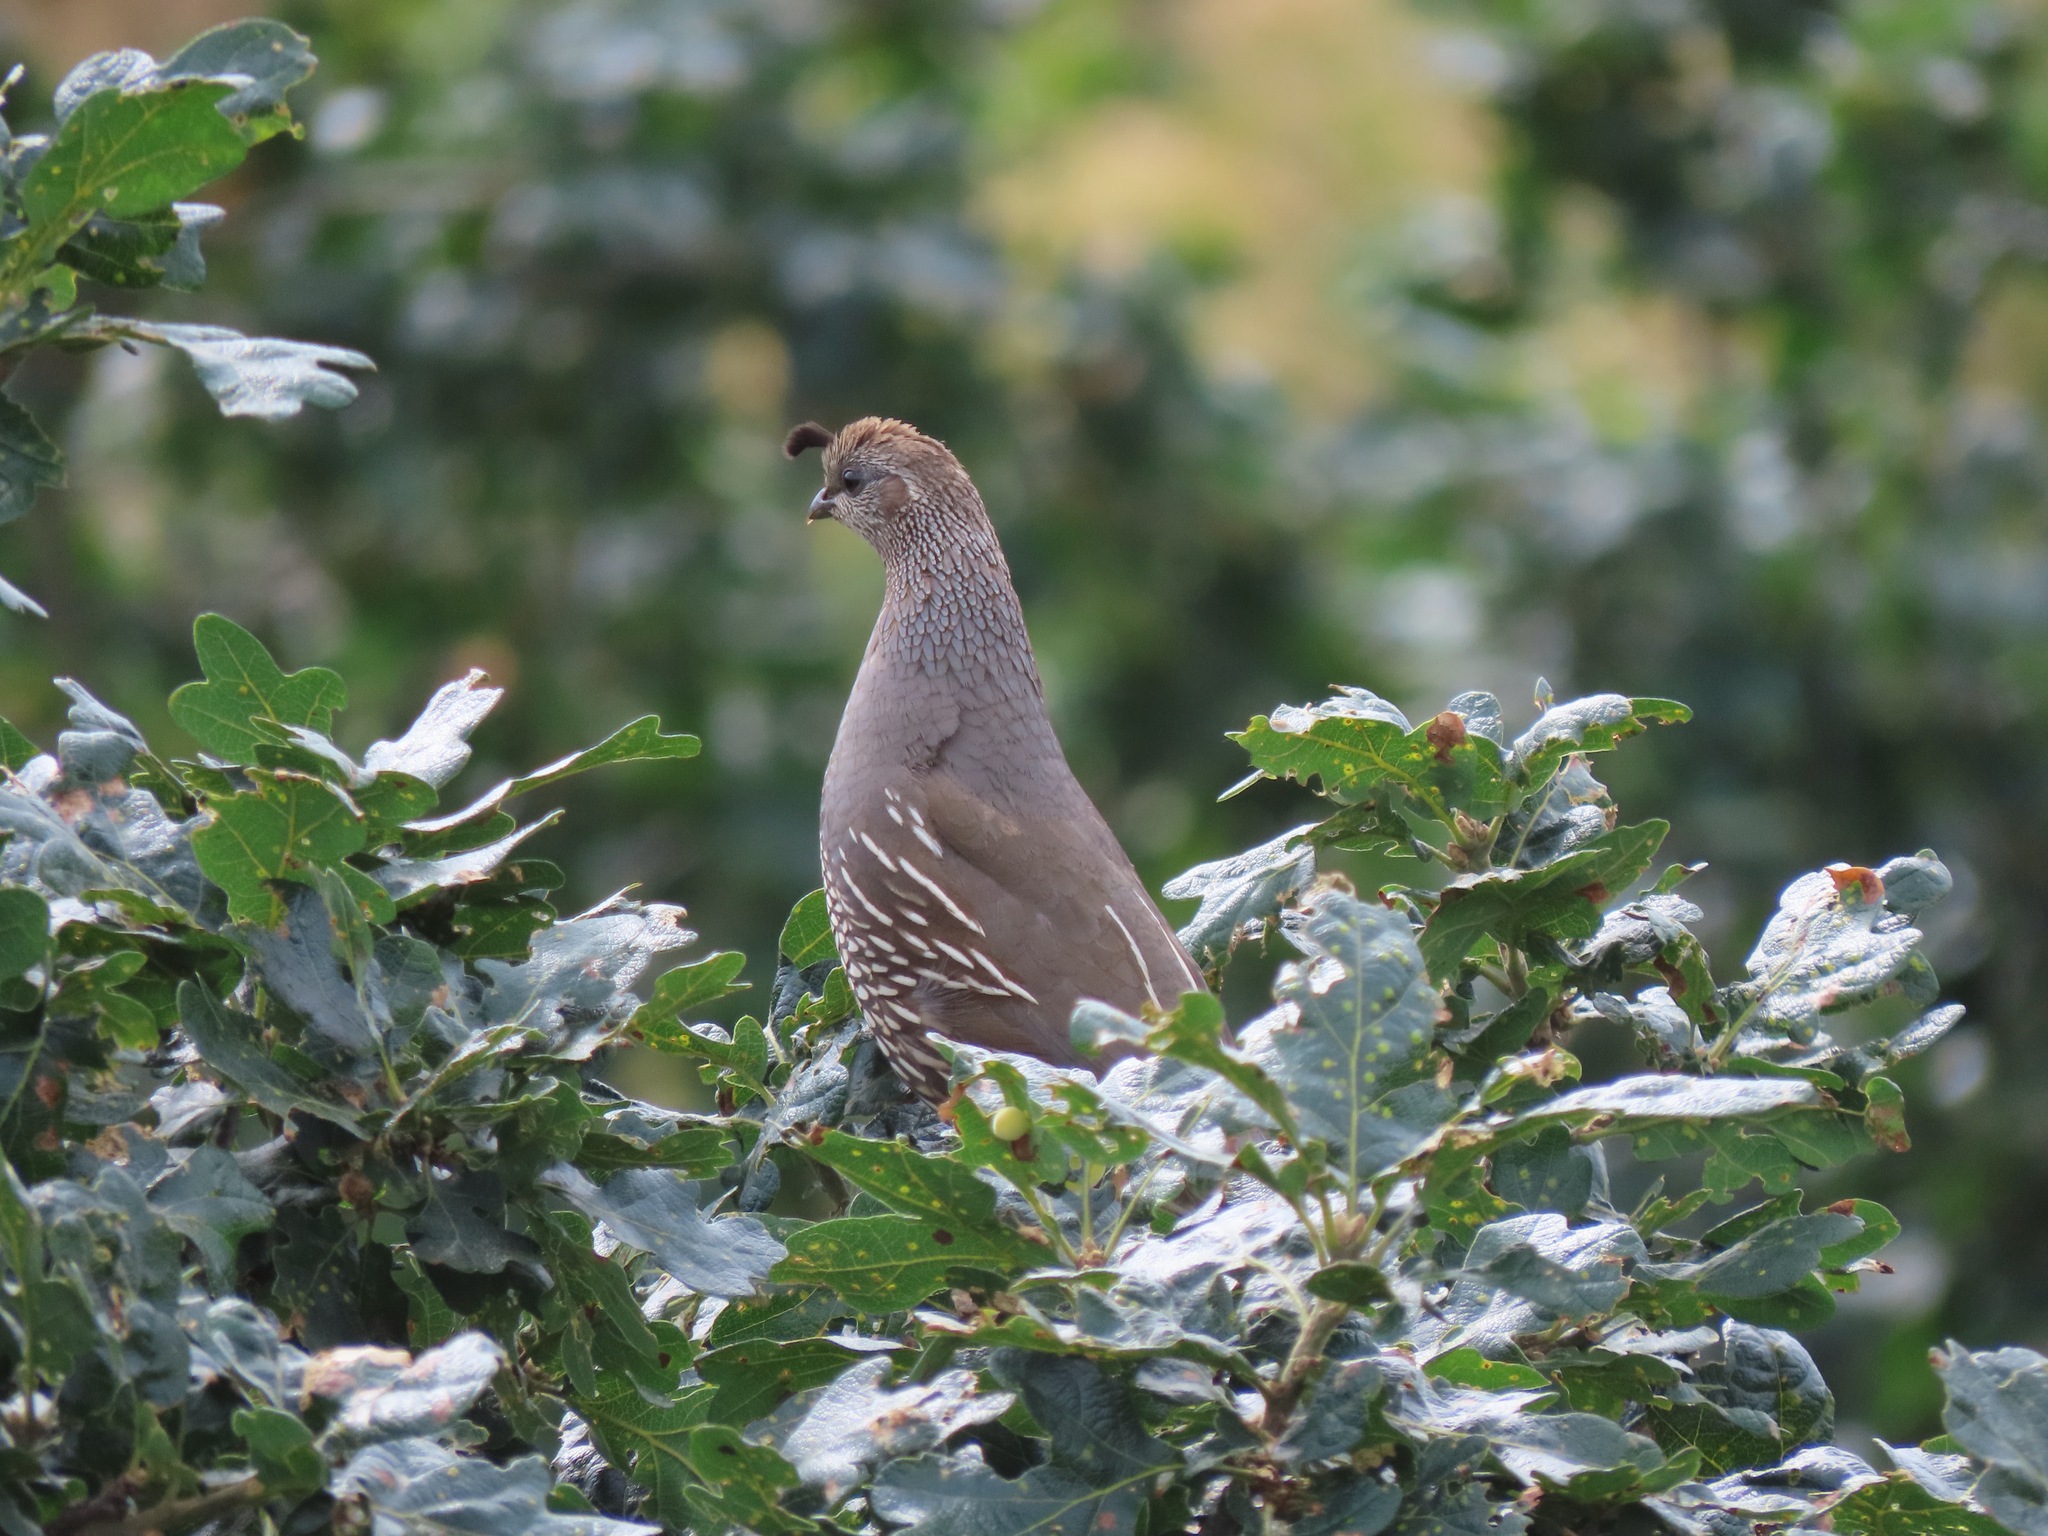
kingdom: Animalia
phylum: Chordata
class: Aves
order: Galliformes
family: Odontophoridae
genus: Callipepla
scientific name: Callipepla californica
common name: California quail
